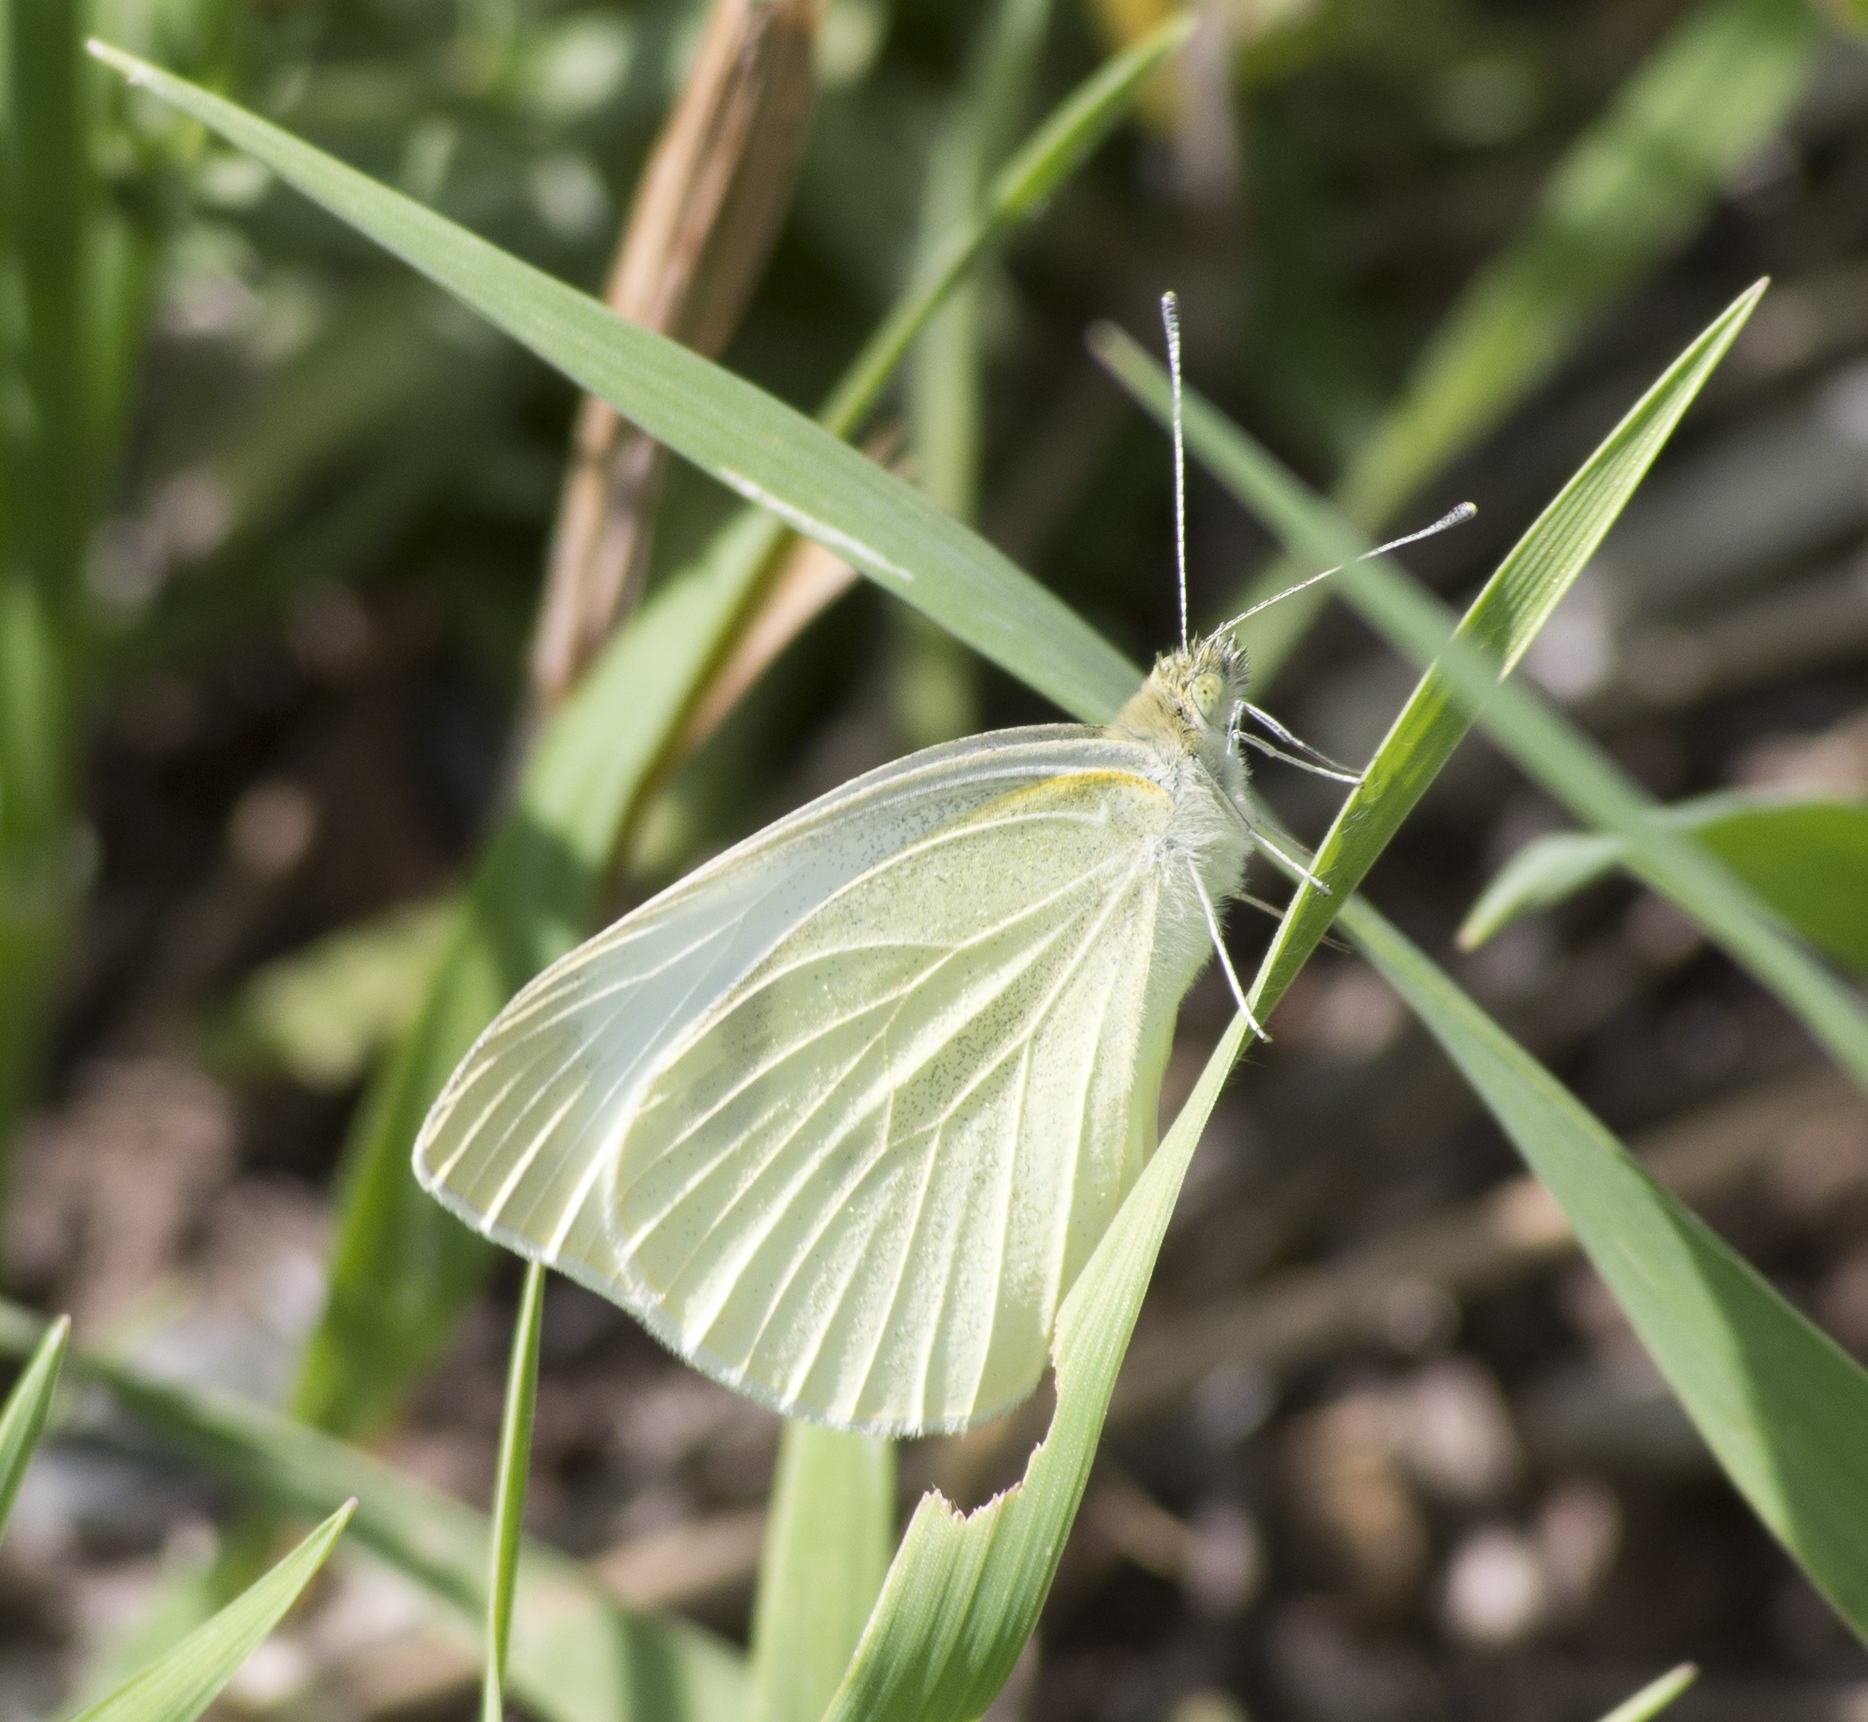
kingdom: Animalia
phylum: Arthropoda
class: Insecta
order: Lepidoptera
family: Pieridae
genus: Pieris
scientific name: Pieris rapae
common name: Small white
